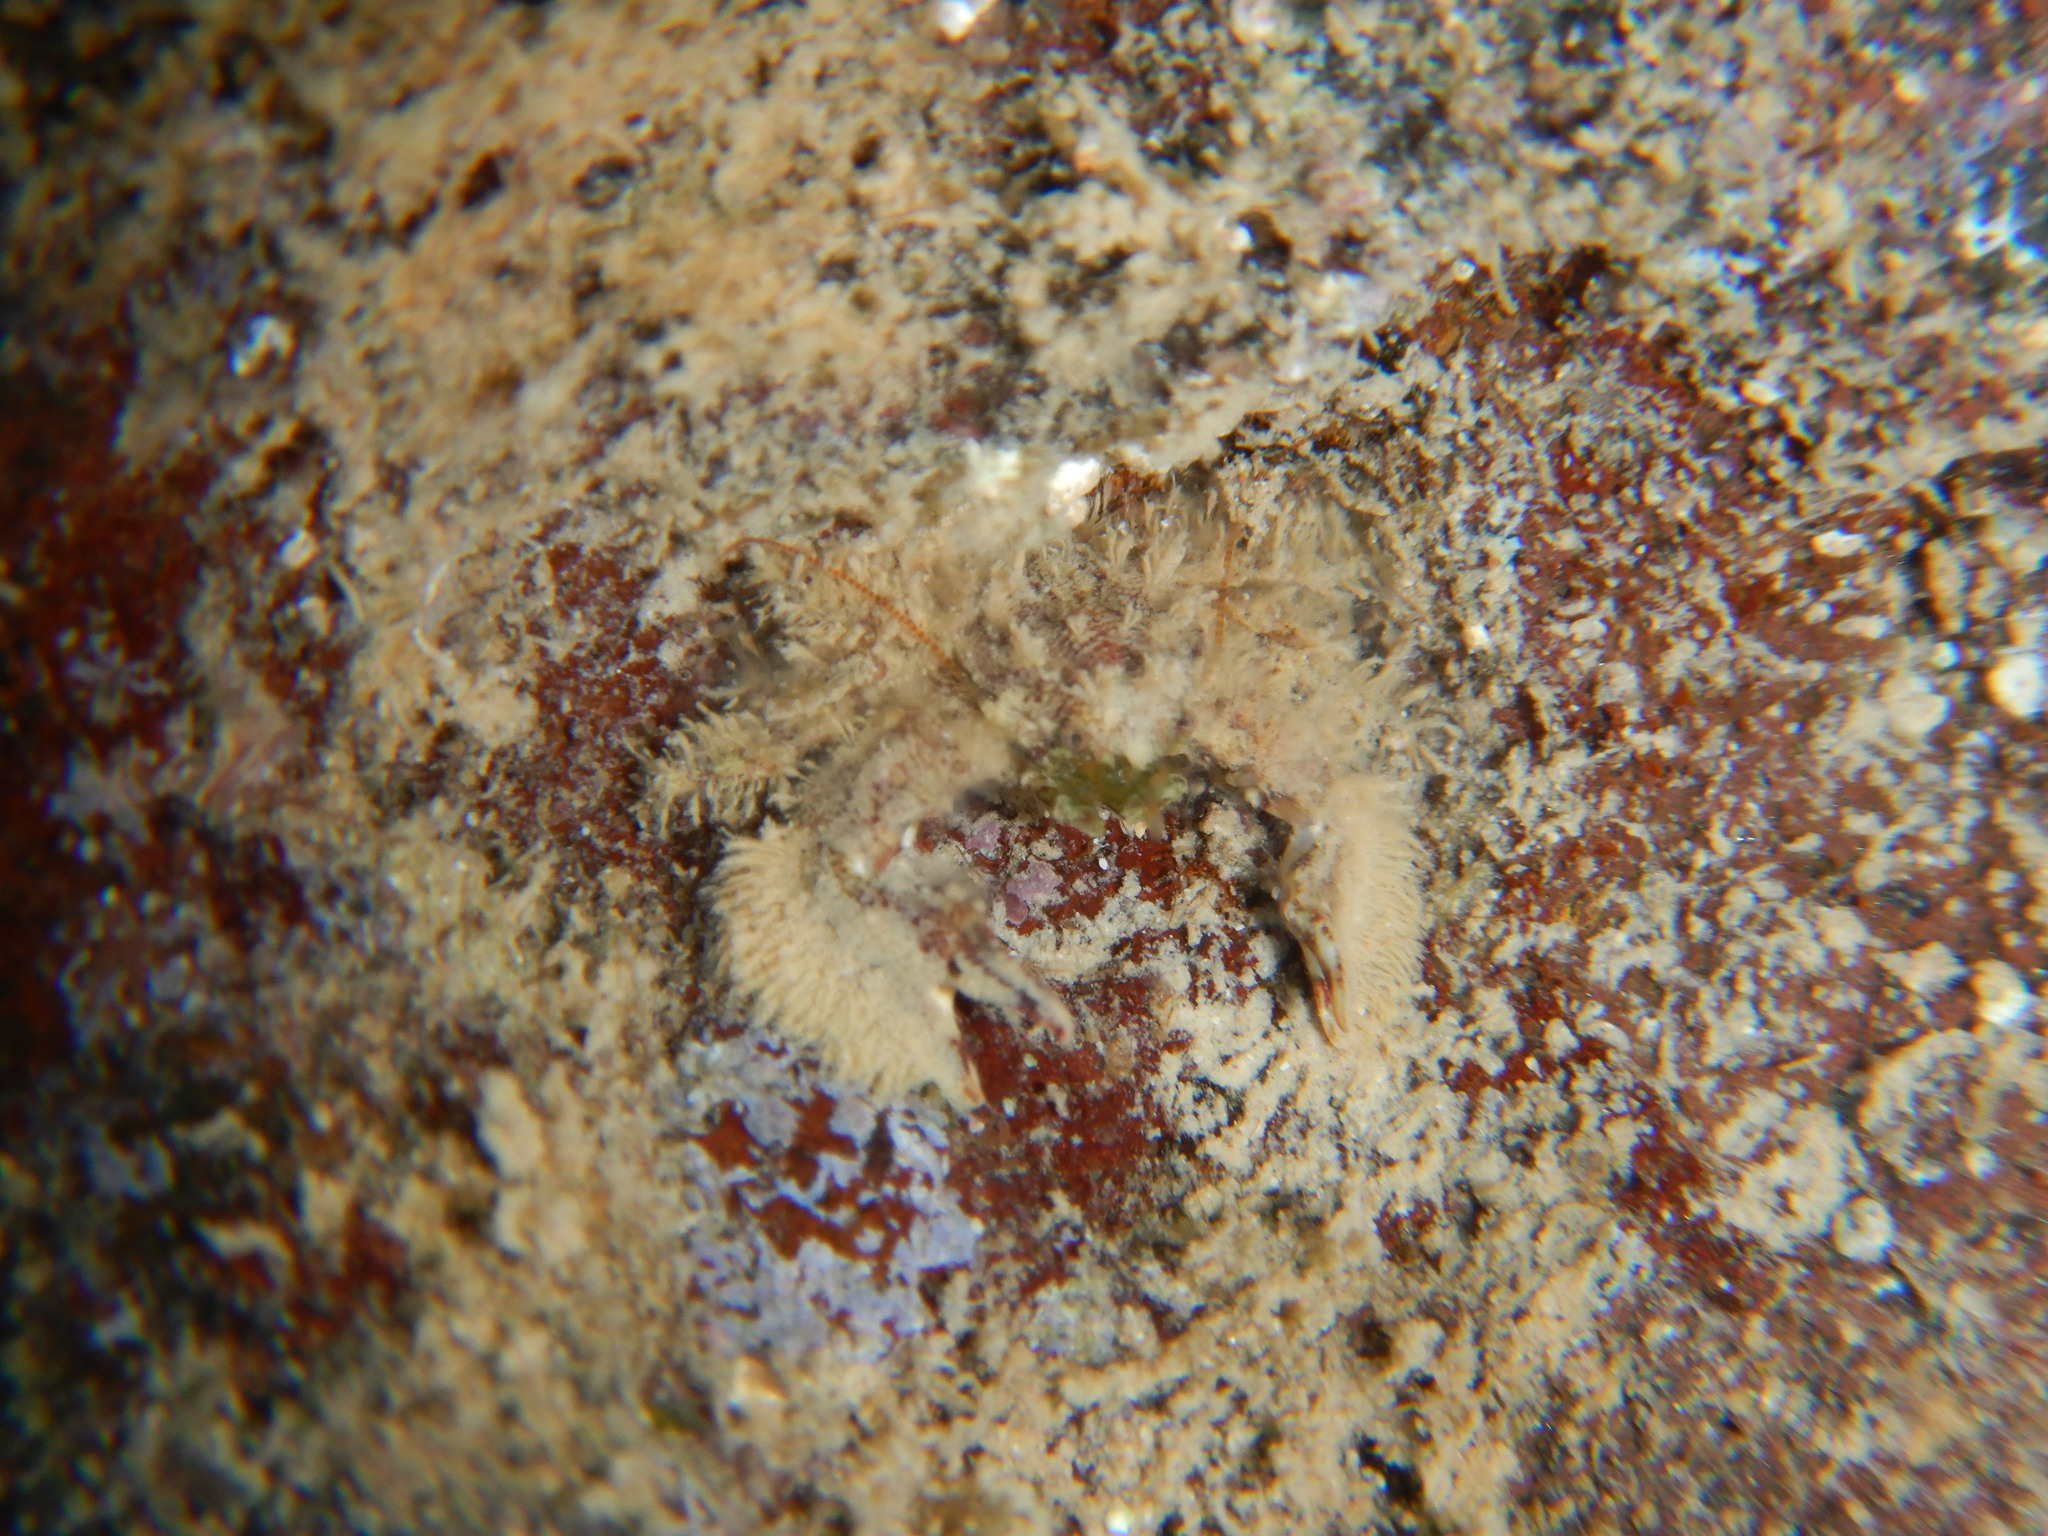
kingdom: Animalia
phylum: Arthropoda
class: Malacostraca
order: Decapoda
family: Porcellanidae
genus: Porcellana
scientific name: Porcellana platycheles
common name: Porcelain crab
